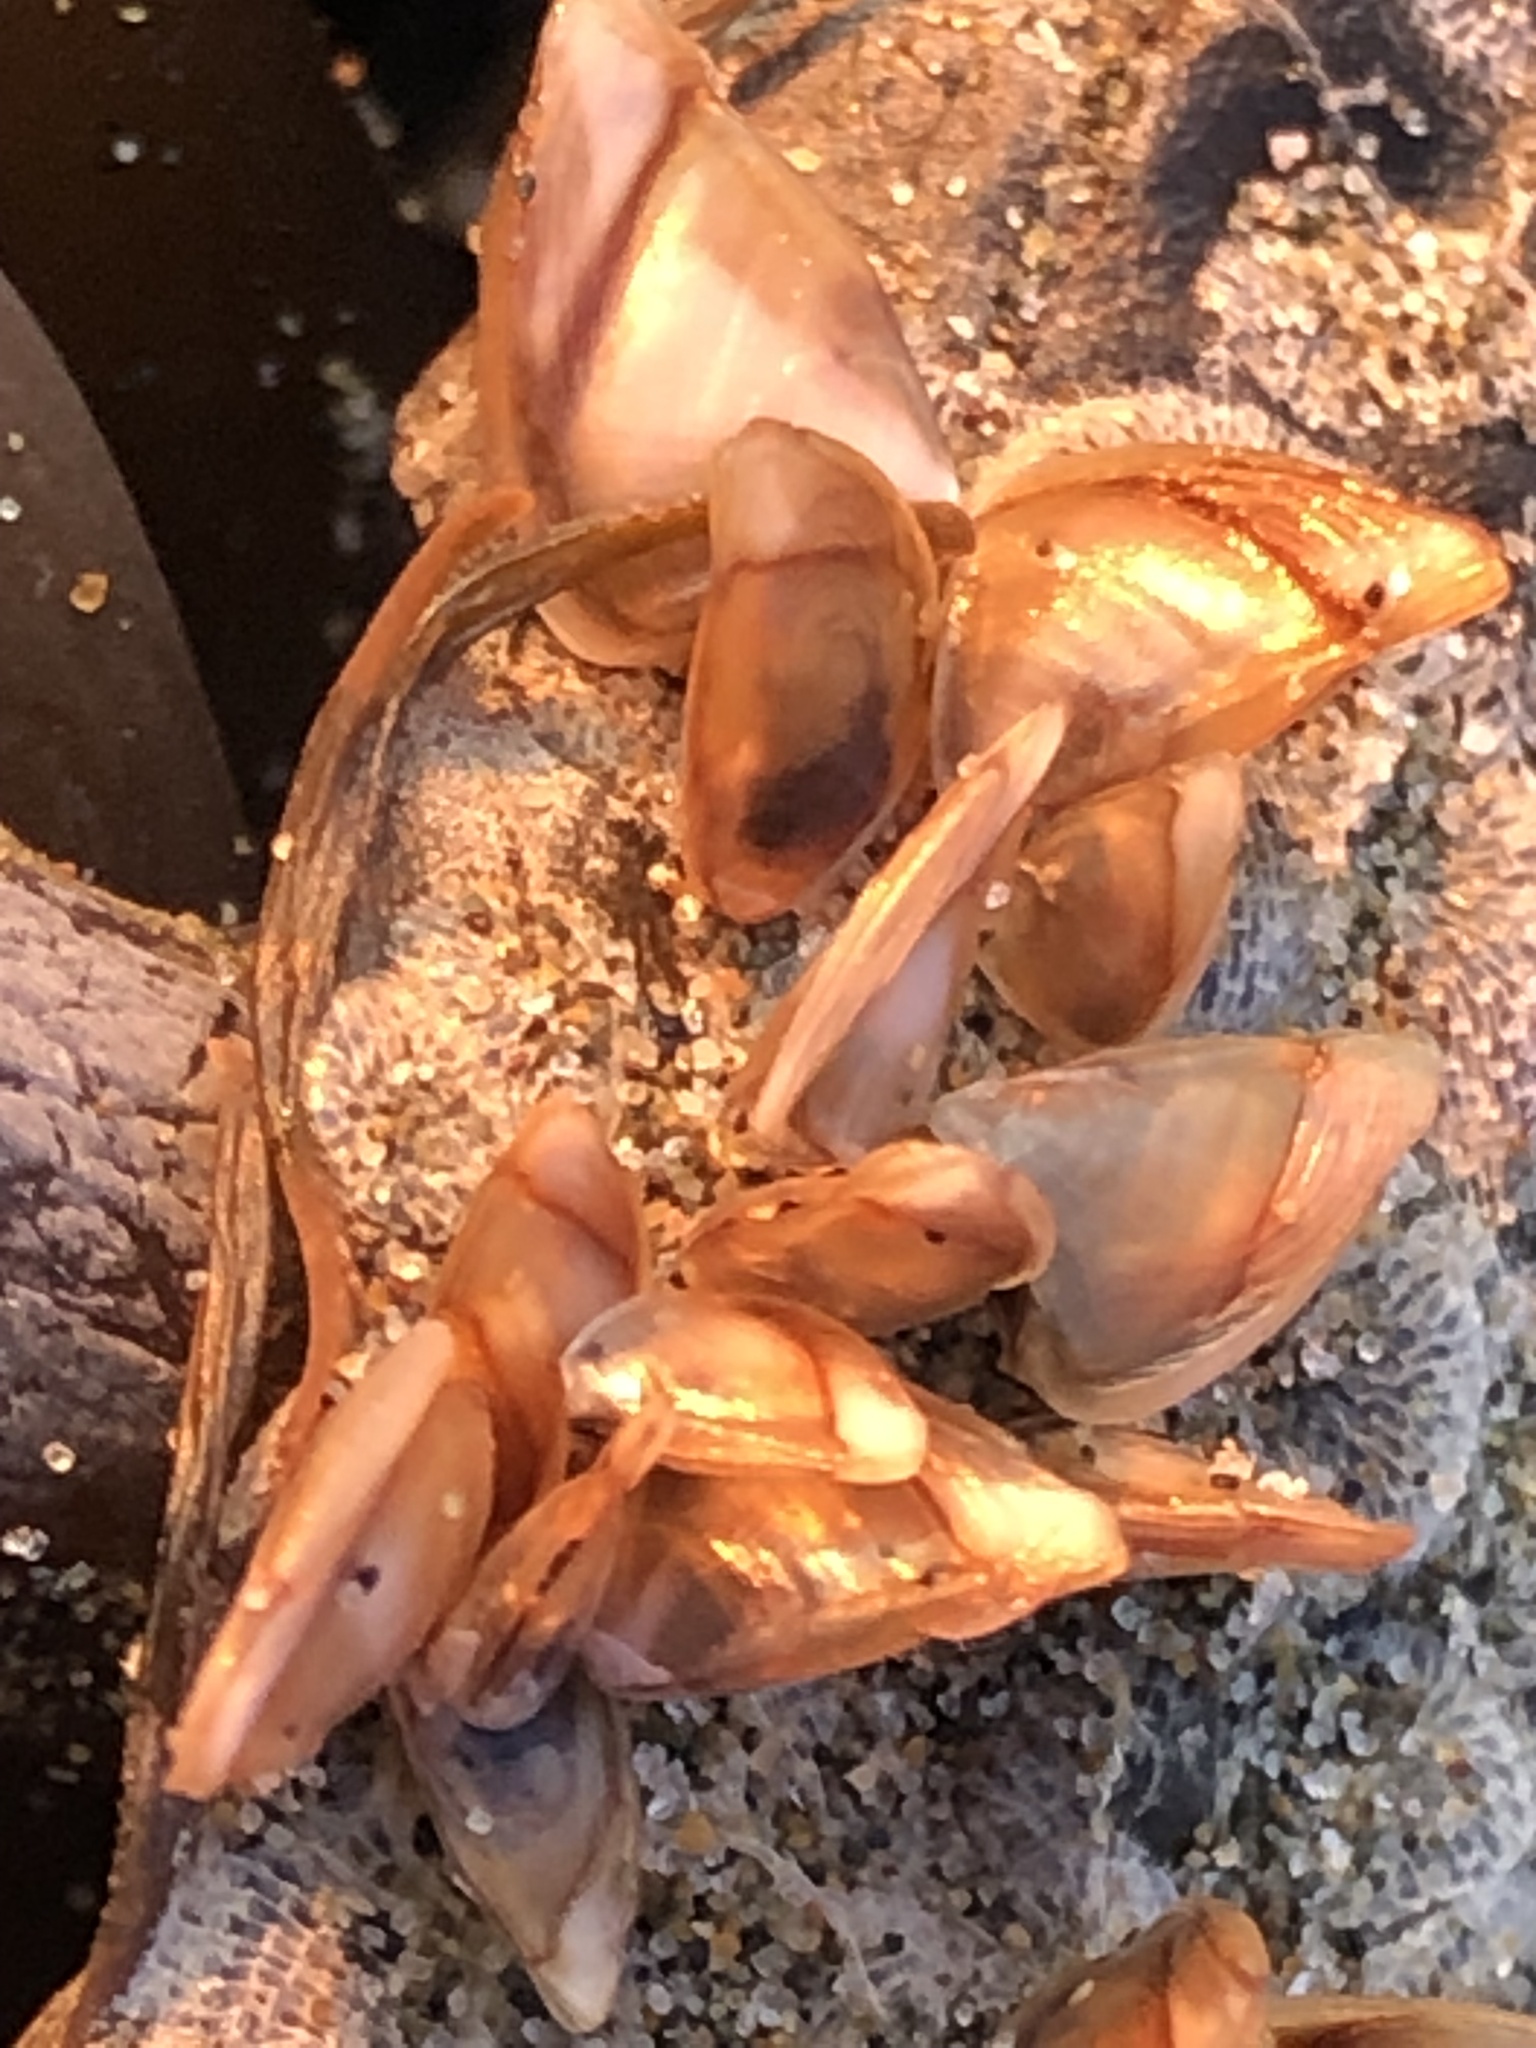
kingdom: Animalia
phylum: Arthropoda
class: Maxillopoda
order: Pedunculata
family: Lepadidae
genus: Lepas
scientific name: Lepas pacifica
